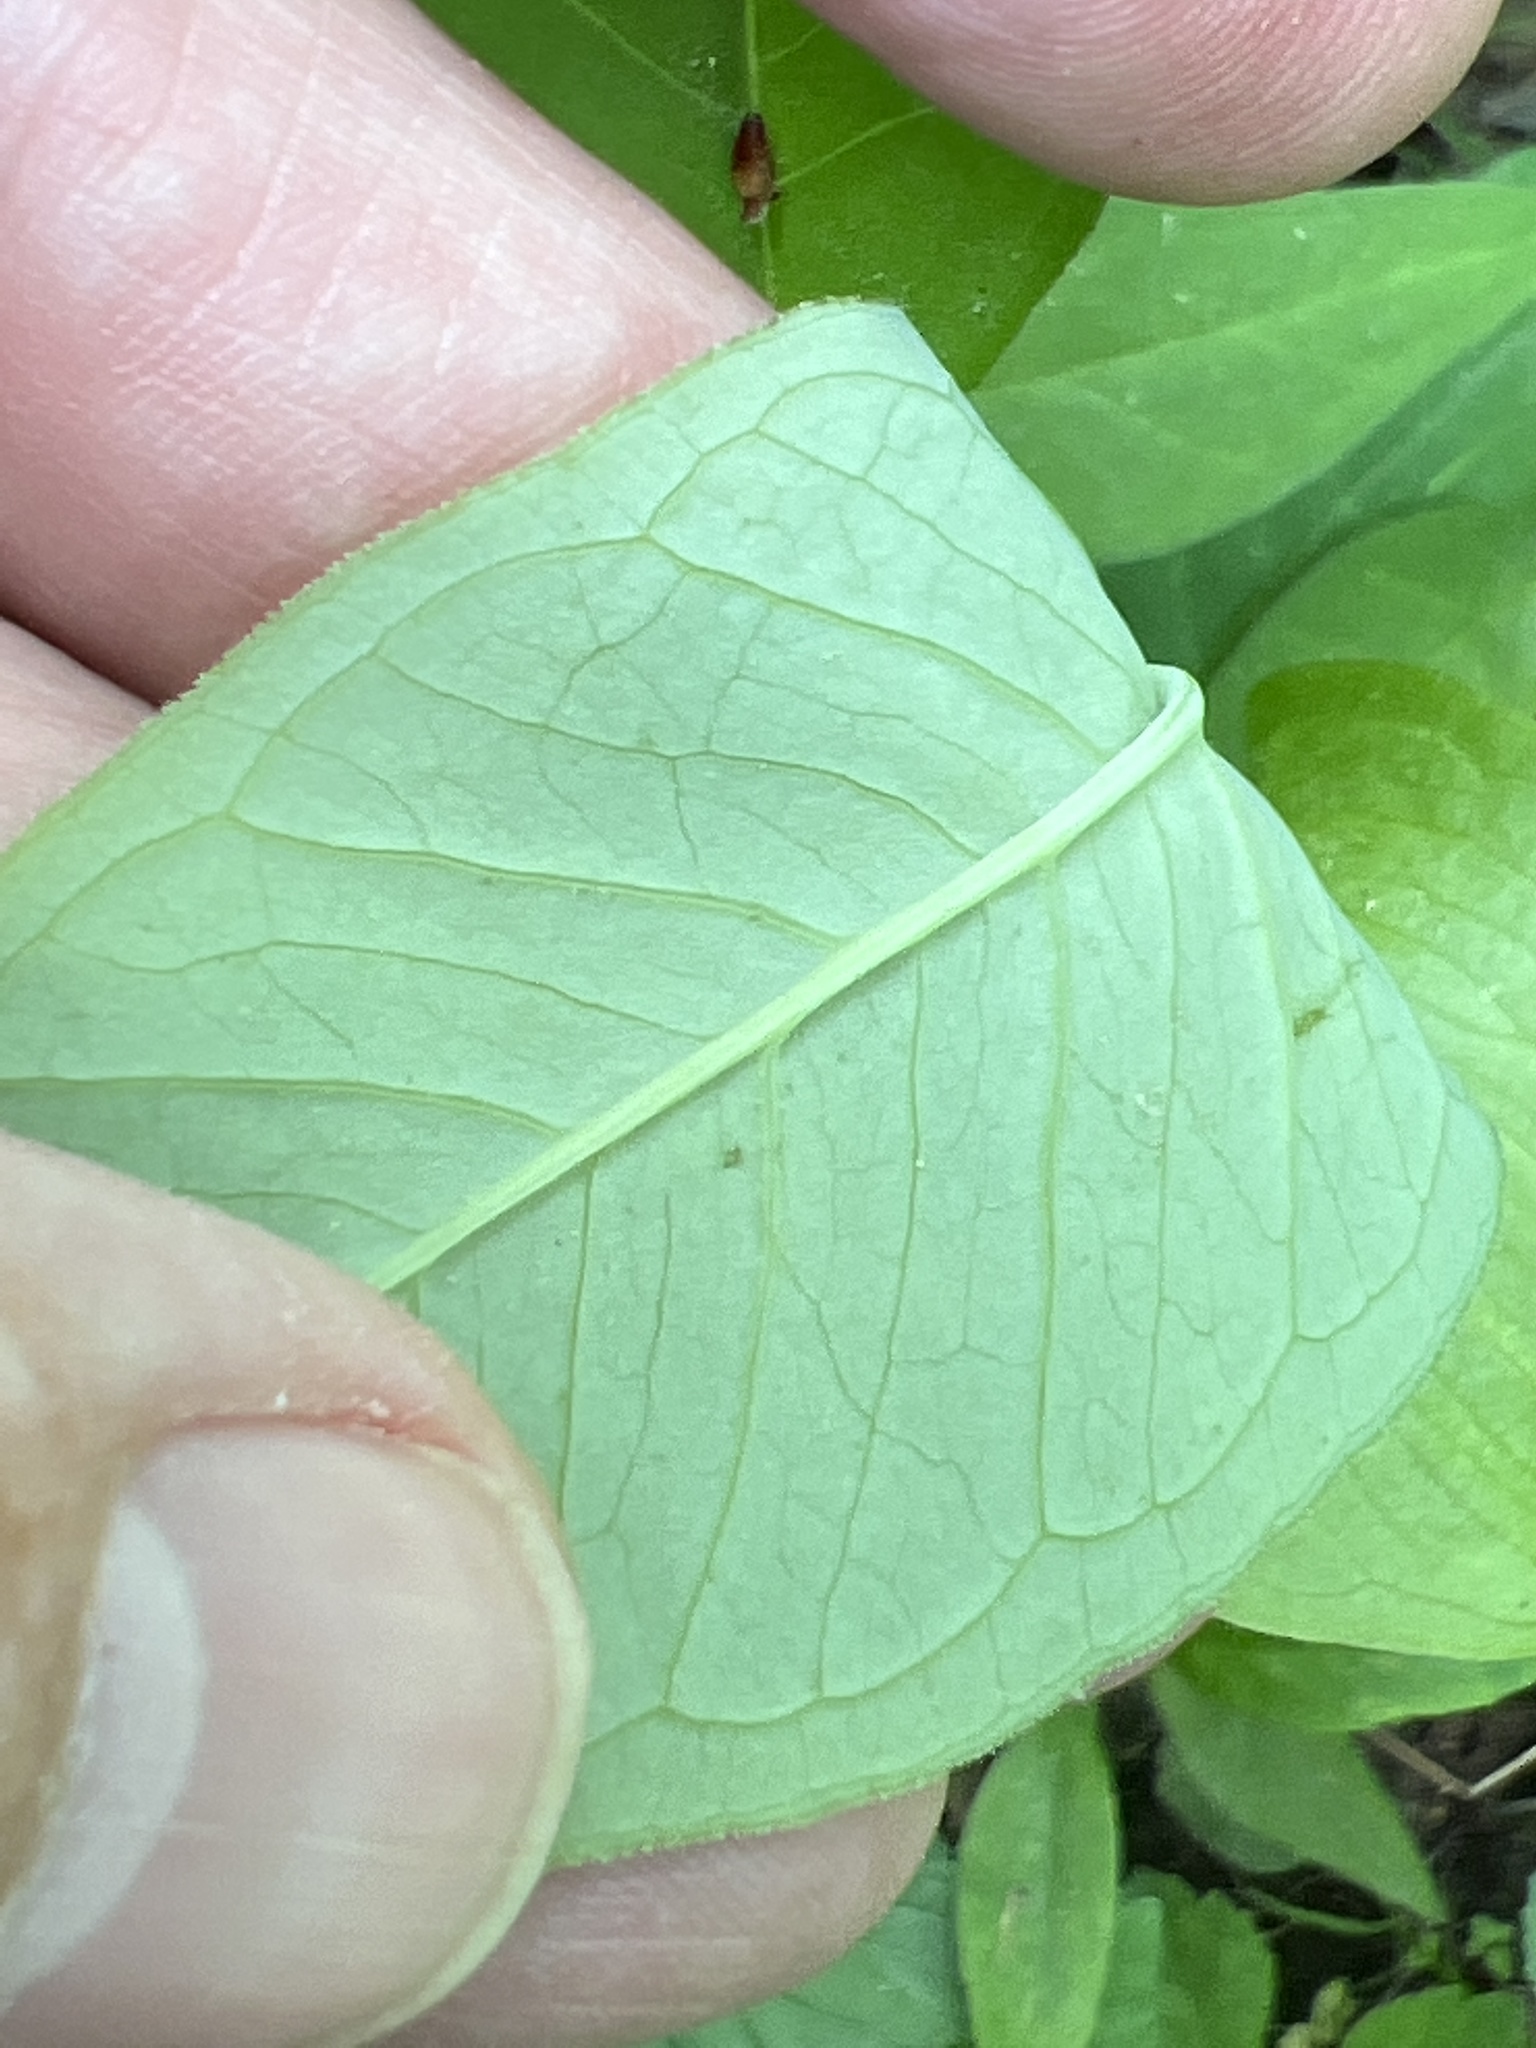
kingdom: Plantae
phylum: Tracheophyta
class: Liliopsida
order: Alismatales
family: Araceae
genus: Arisaema
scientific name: Arisaema triphyllum
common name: Jack-in-the-pulpit
